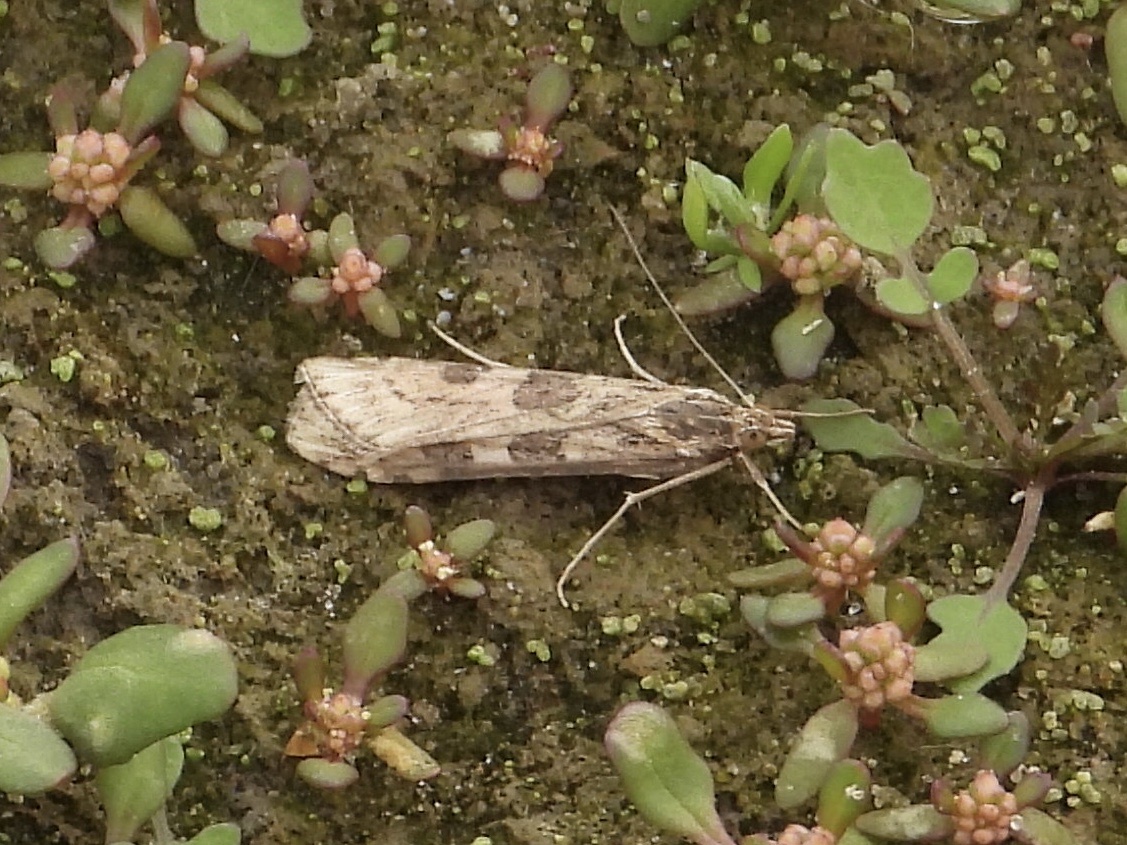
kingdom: Animalia
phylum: Arthropoda
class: Insecta
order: Lepidoptera
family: Crambidae
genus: Nomophila
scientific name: Nomophila nearctica
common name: American rush veneer
